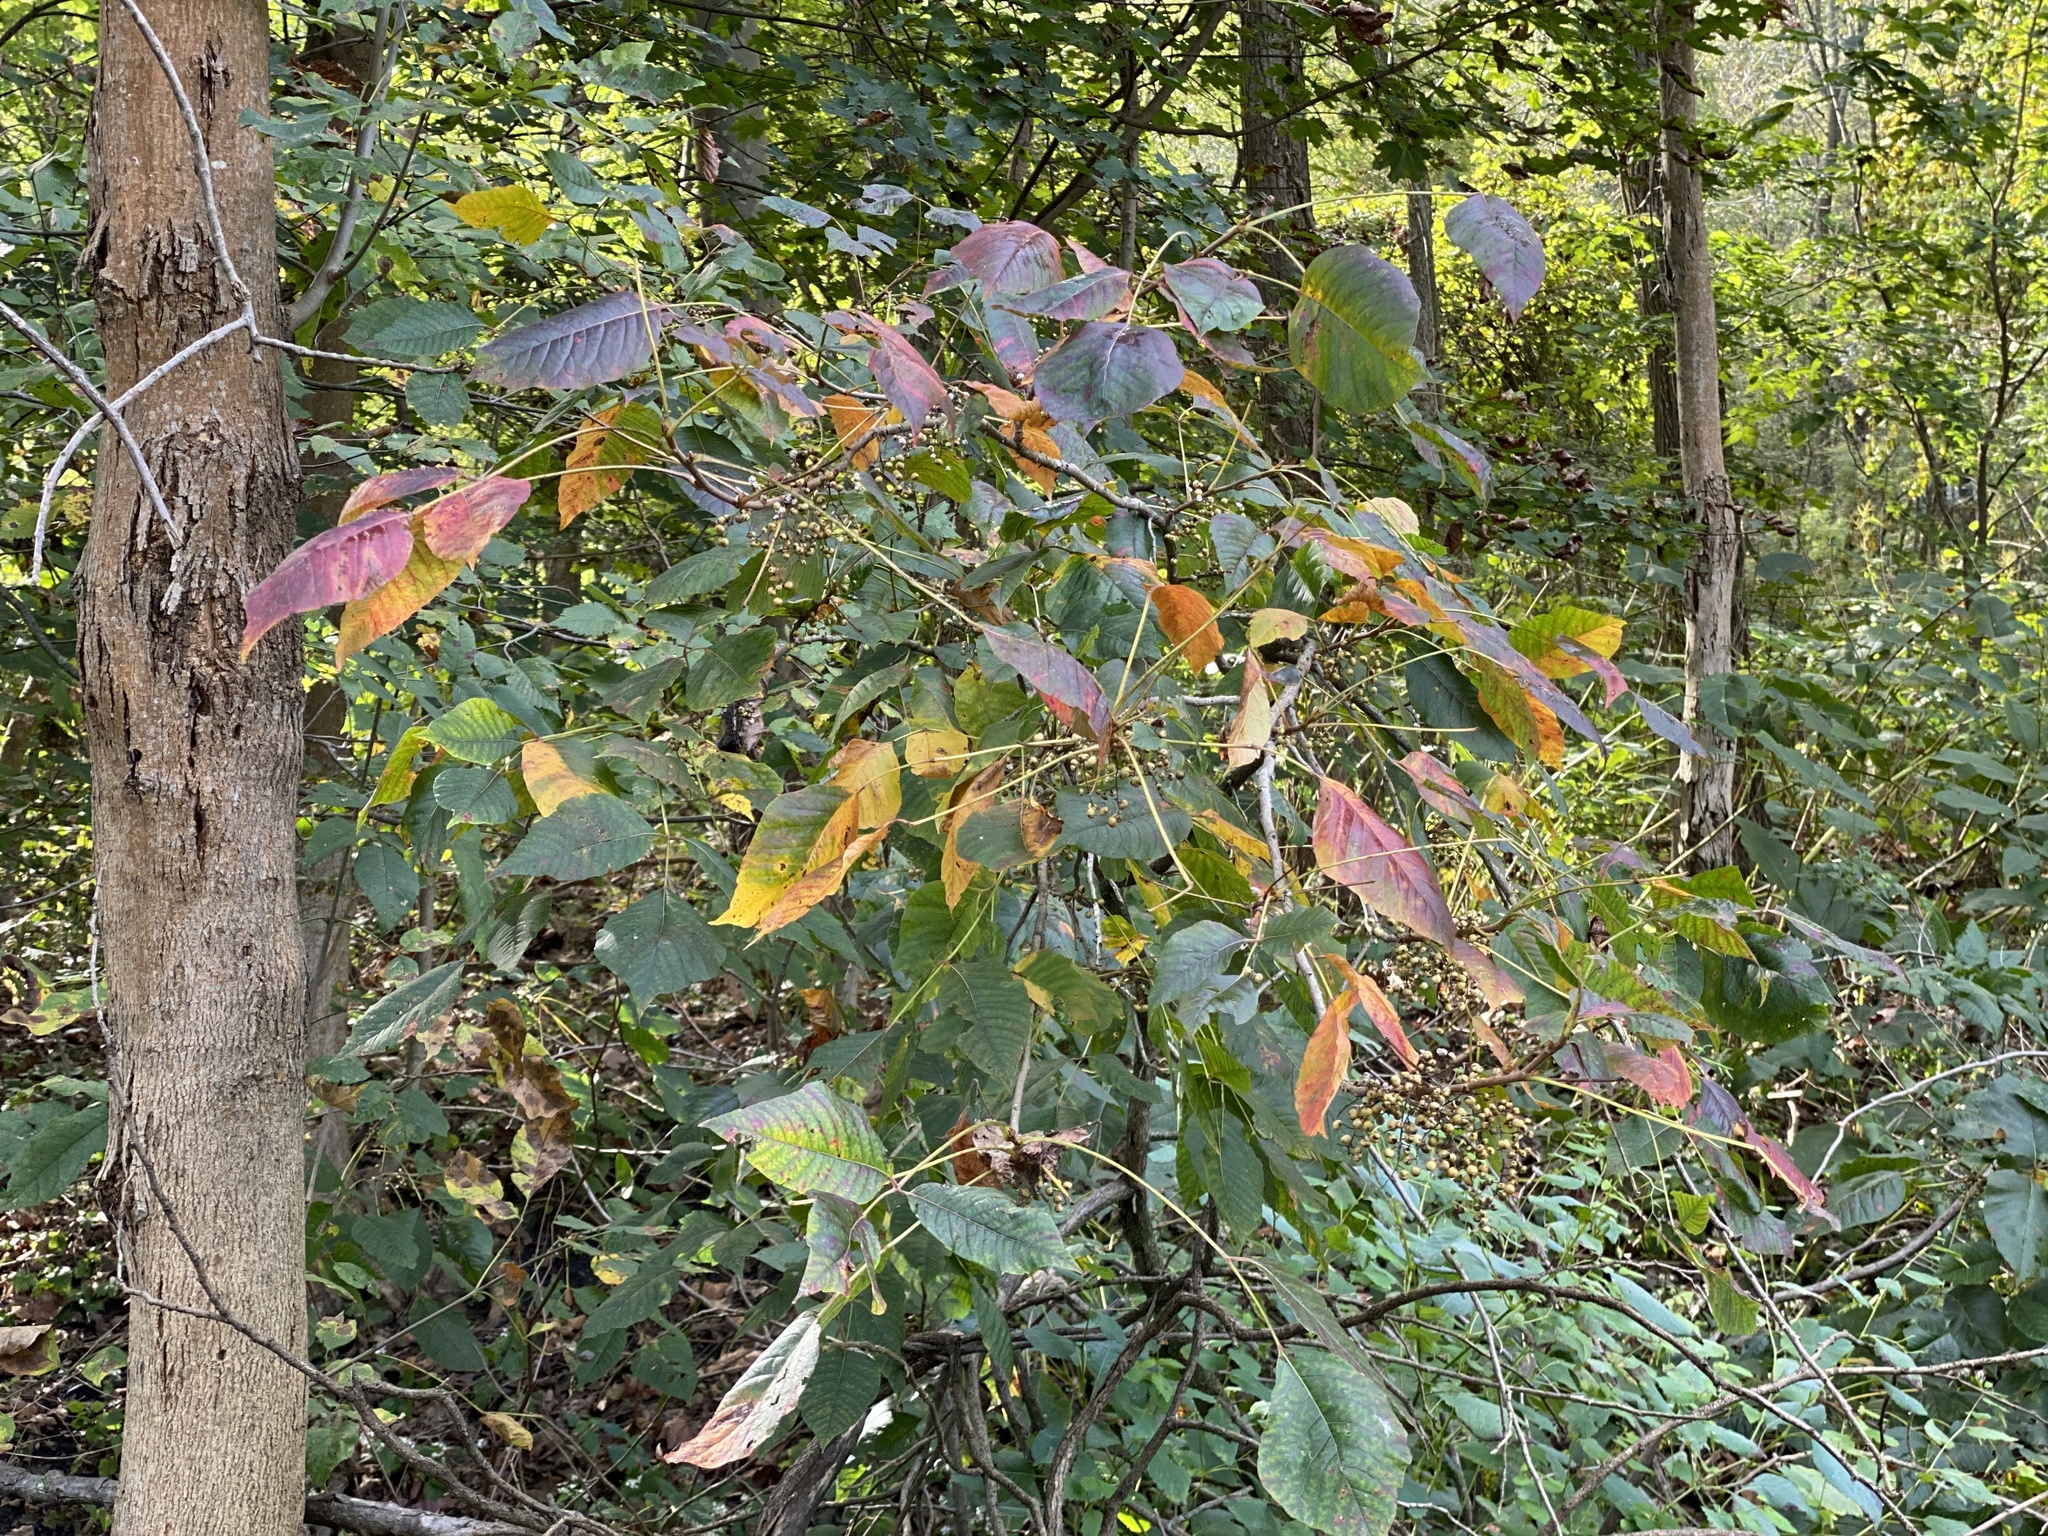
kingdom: Plantae
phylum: Tracheophyta
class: Magnoliopsida
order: Sapindales
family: Anacardiaceae
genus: Toxicodendron
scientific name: Toxicodendron radicans
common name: Poison ivy
